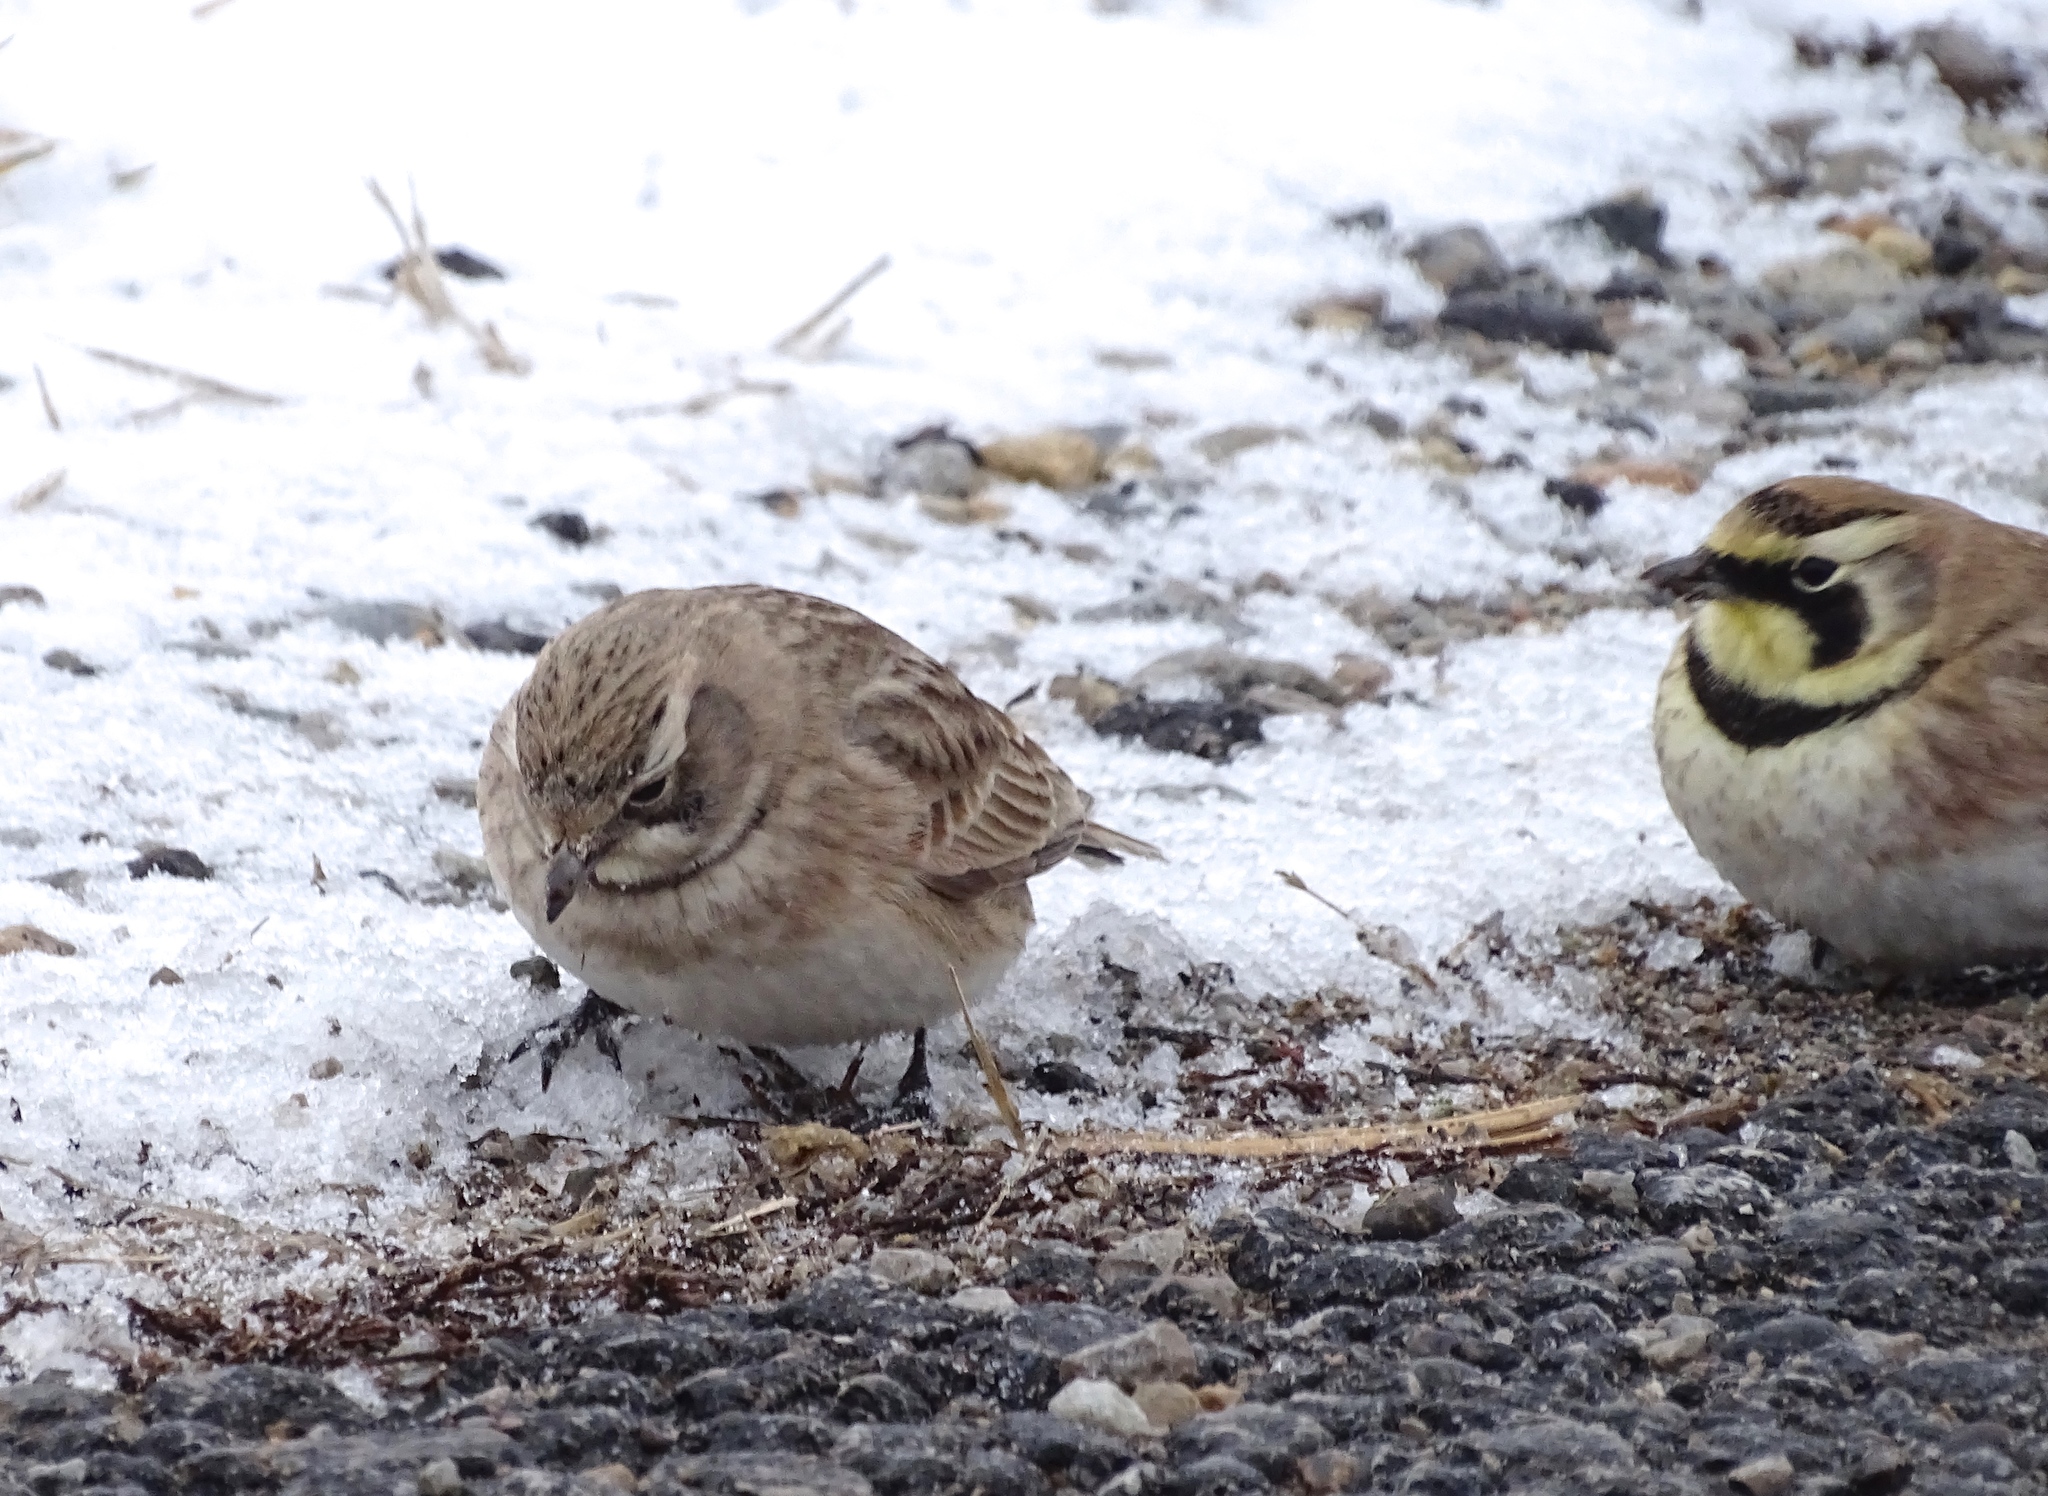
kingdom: Animalia
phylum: Chordata
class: Aves
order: Passeriformes
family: Alaudidae
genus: Eremophila
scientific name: Eremophila alpestris
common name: Horned lark
